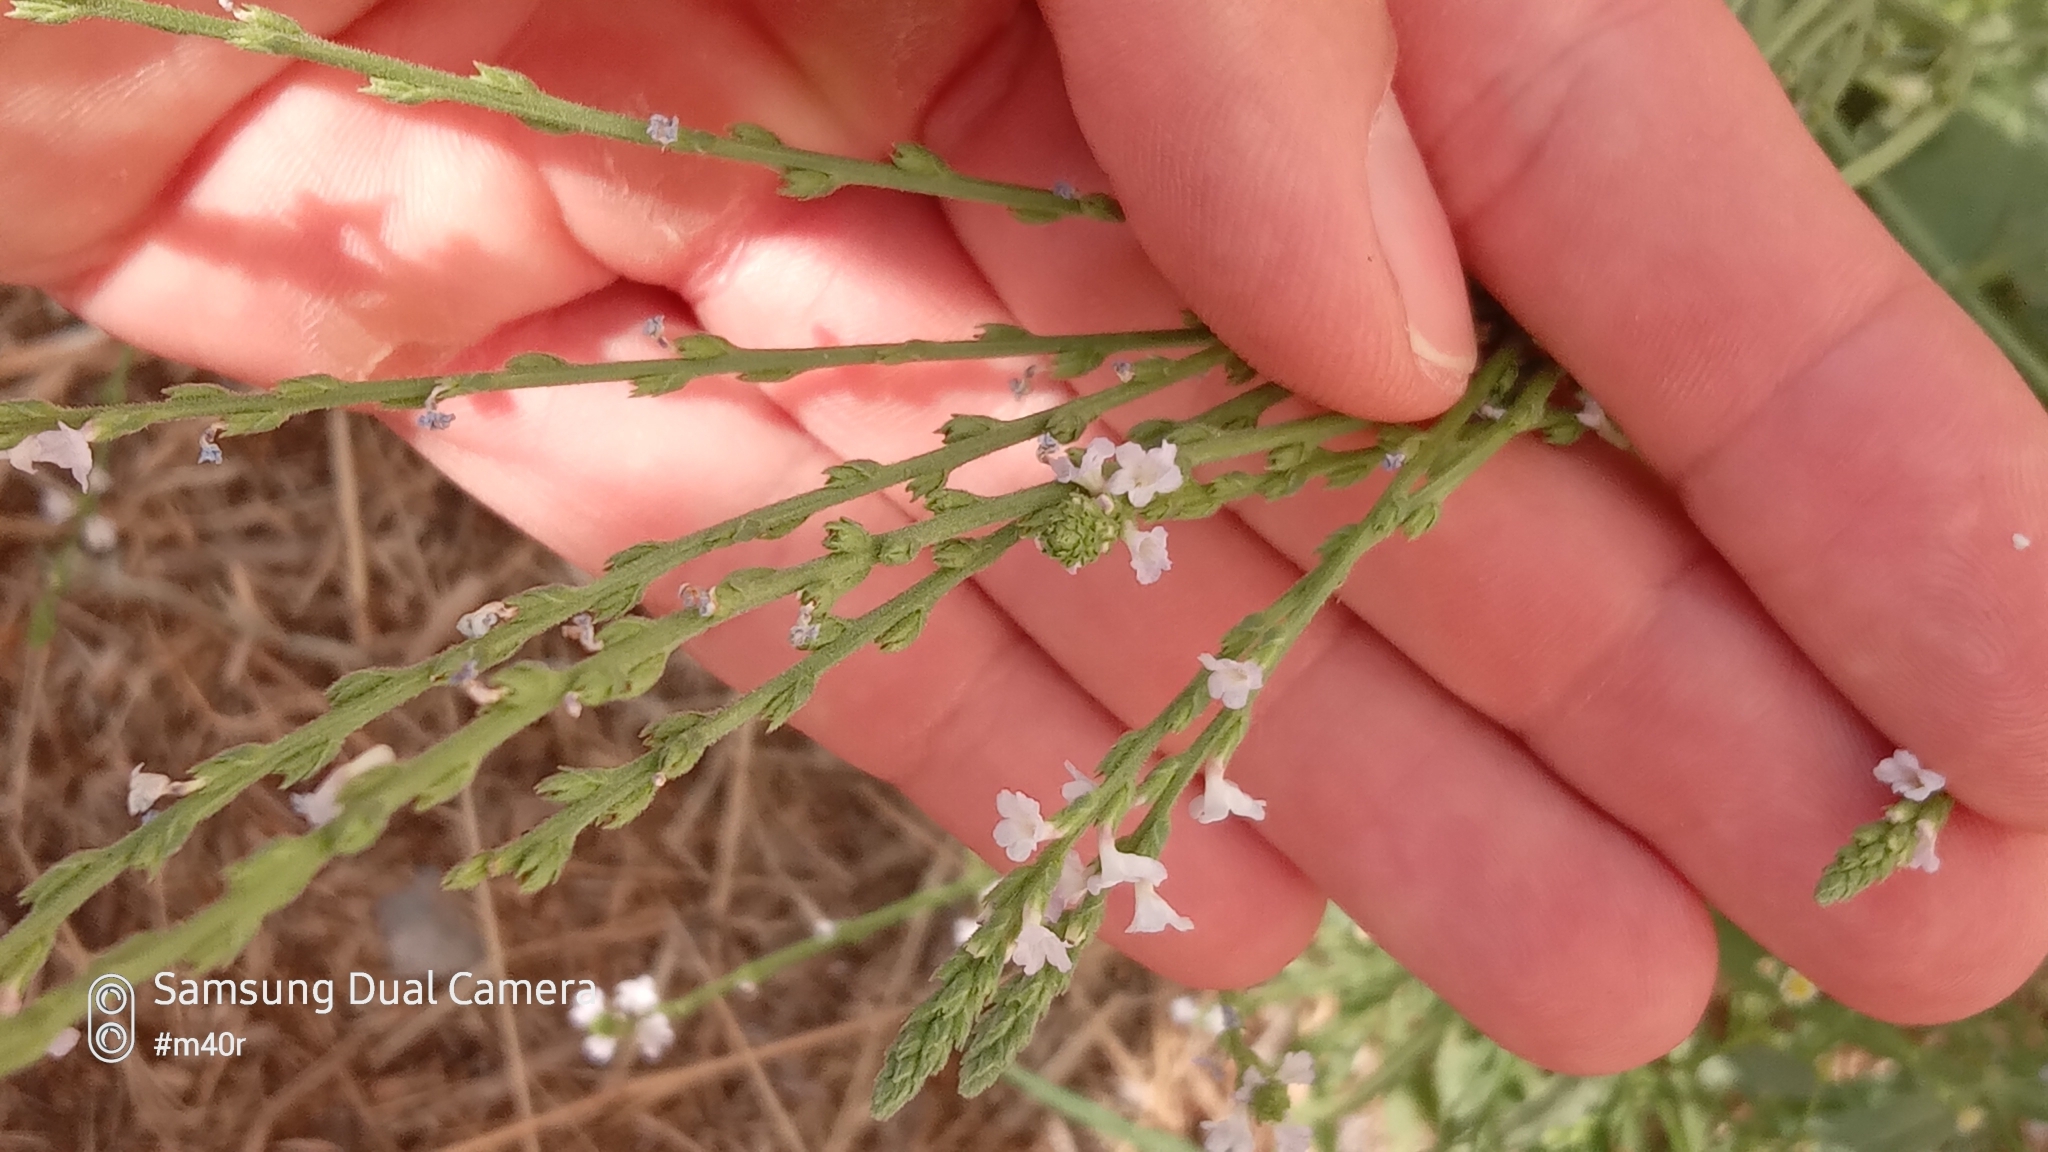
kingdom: Plantae
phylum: Tracheophyta
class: Magnoliopsida
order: Lamiales
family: Verbenaceae
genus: Verbena
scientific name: Verbena officinalis
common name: Vervain
